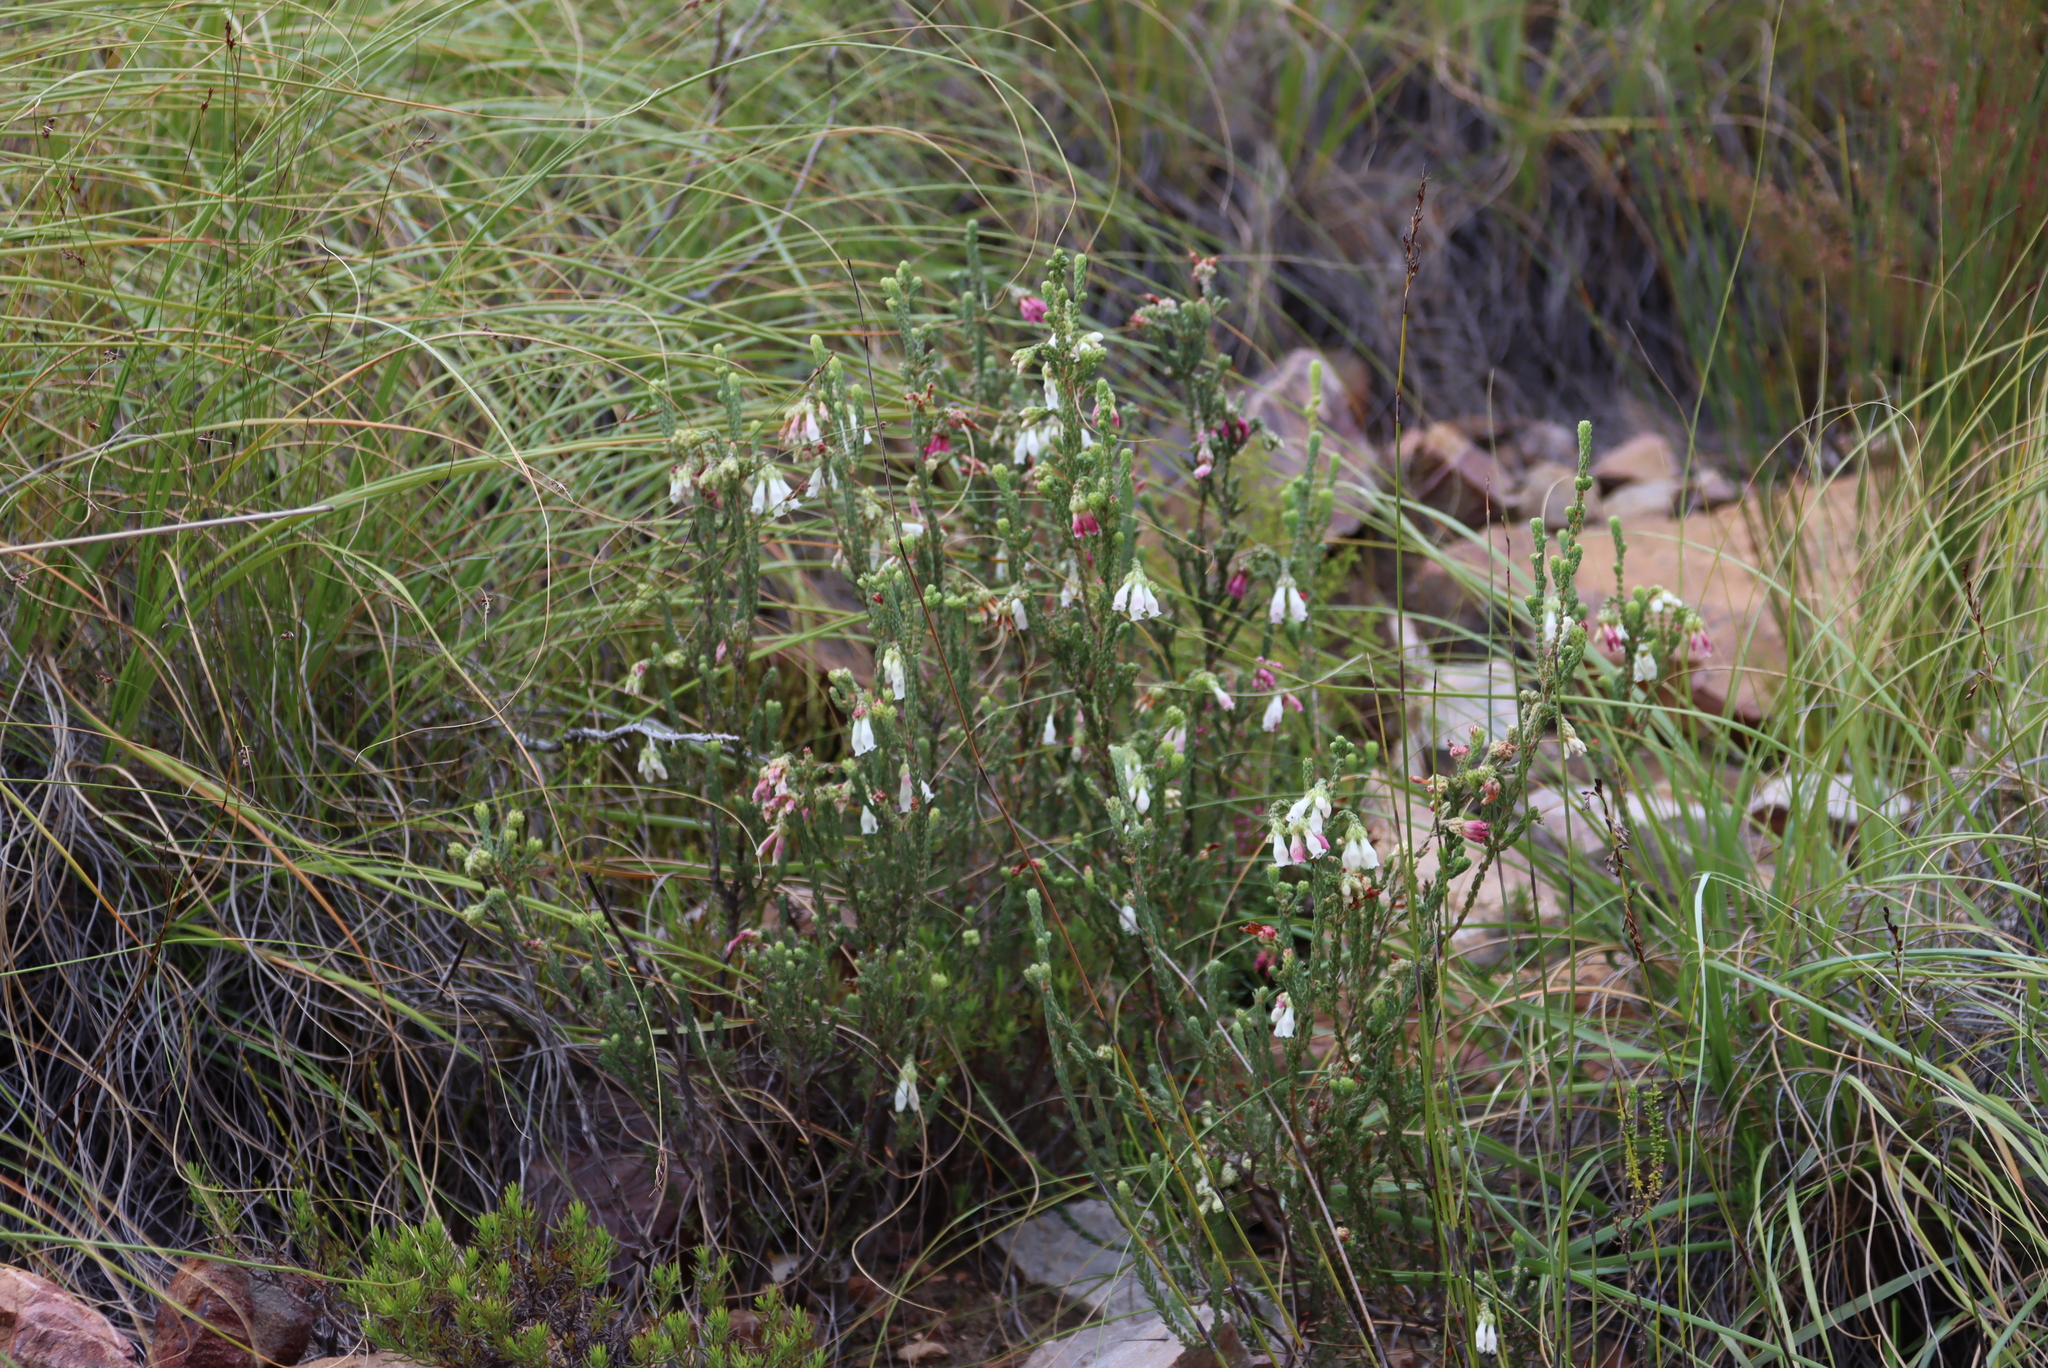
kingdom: Plantae
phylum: Tracheophyta
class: Magnoliopsida
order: Ericales
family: Ericaceae
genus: Erica
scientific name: Erica pectinifolia
